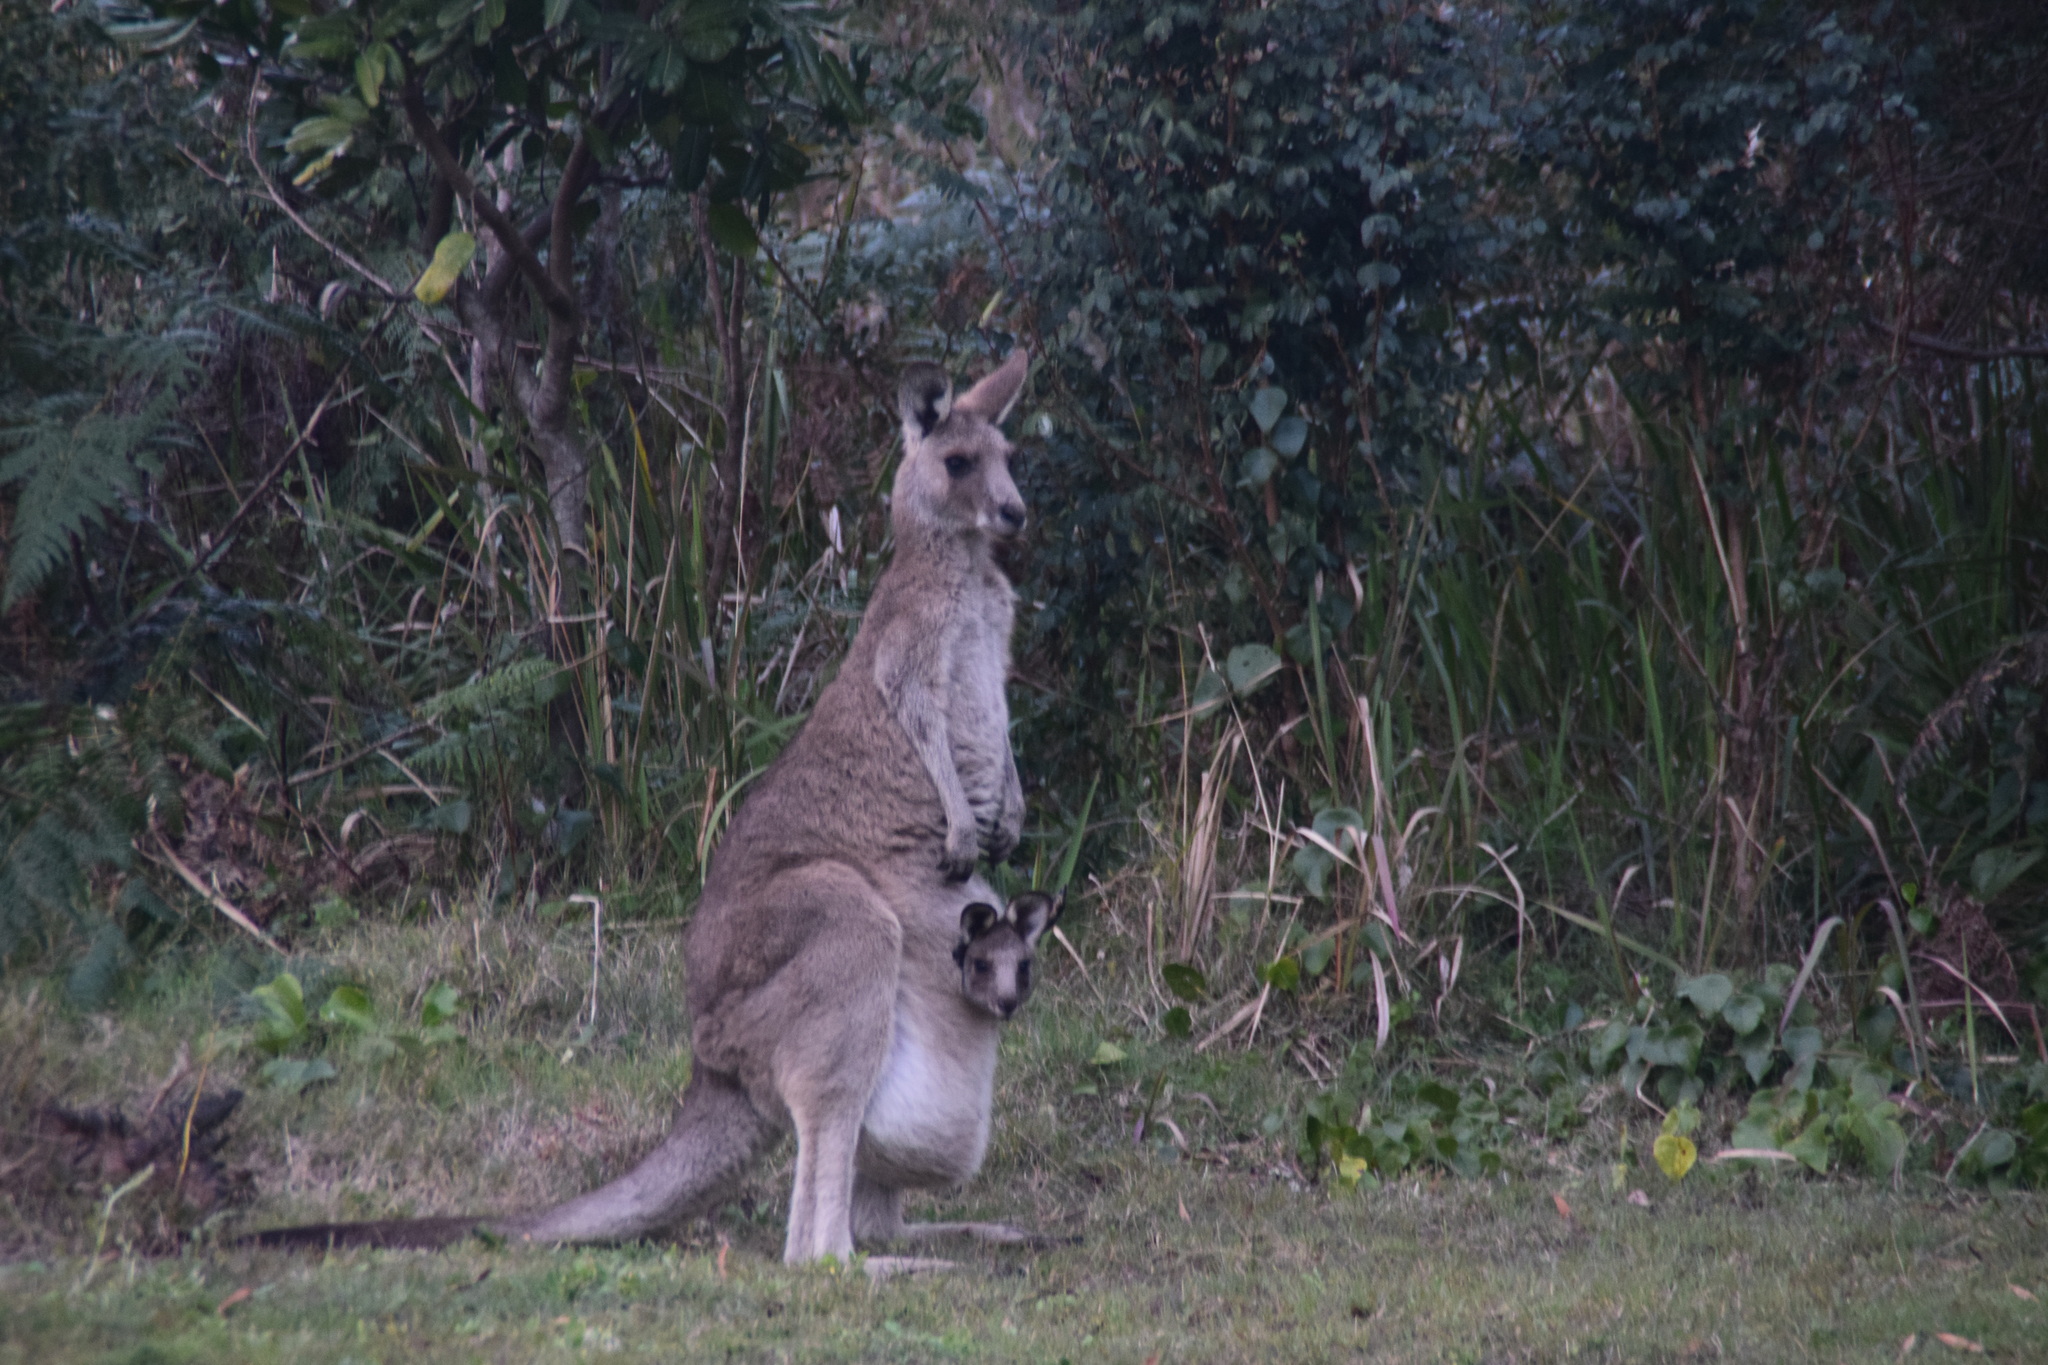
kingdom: Animalia
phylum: Chordata
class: Mammalia
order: Diprotodontia
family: Macropodidae
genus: Macropus
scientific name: Macropus giganteus
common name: Eastern grey kangaroo
